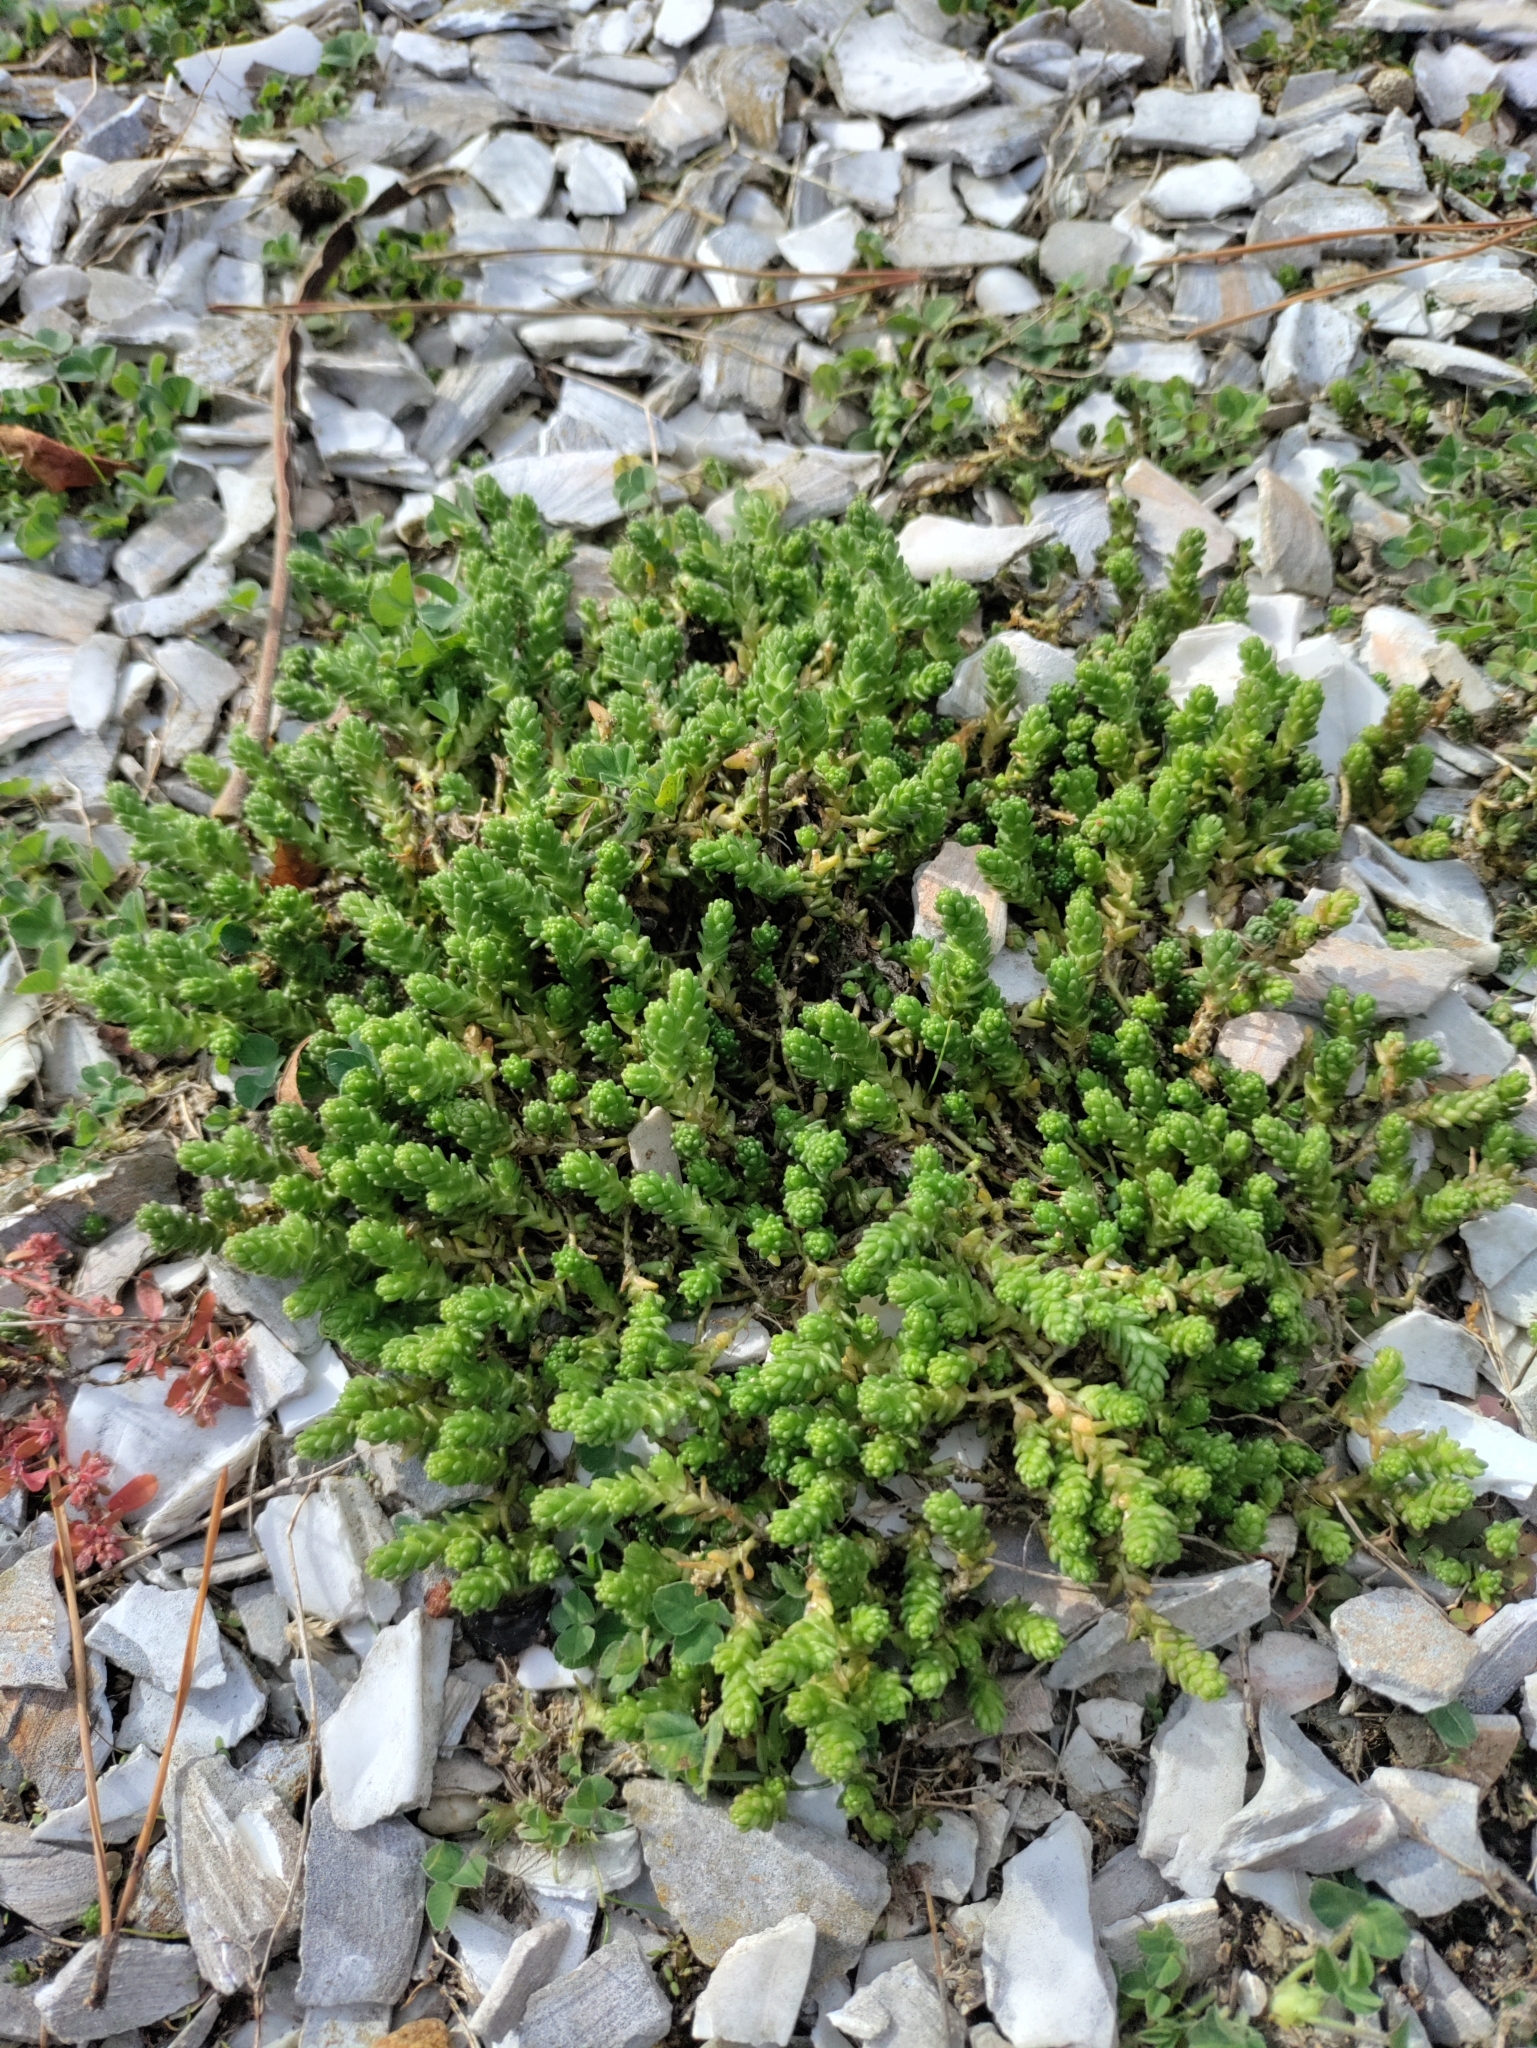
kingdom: Plantae
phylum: Tracheophyta
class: Magnoliopsida
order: Saxifragales
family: Crassulaceae
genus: Sedum
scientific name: Sedum acre
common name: Biting stonecrop
